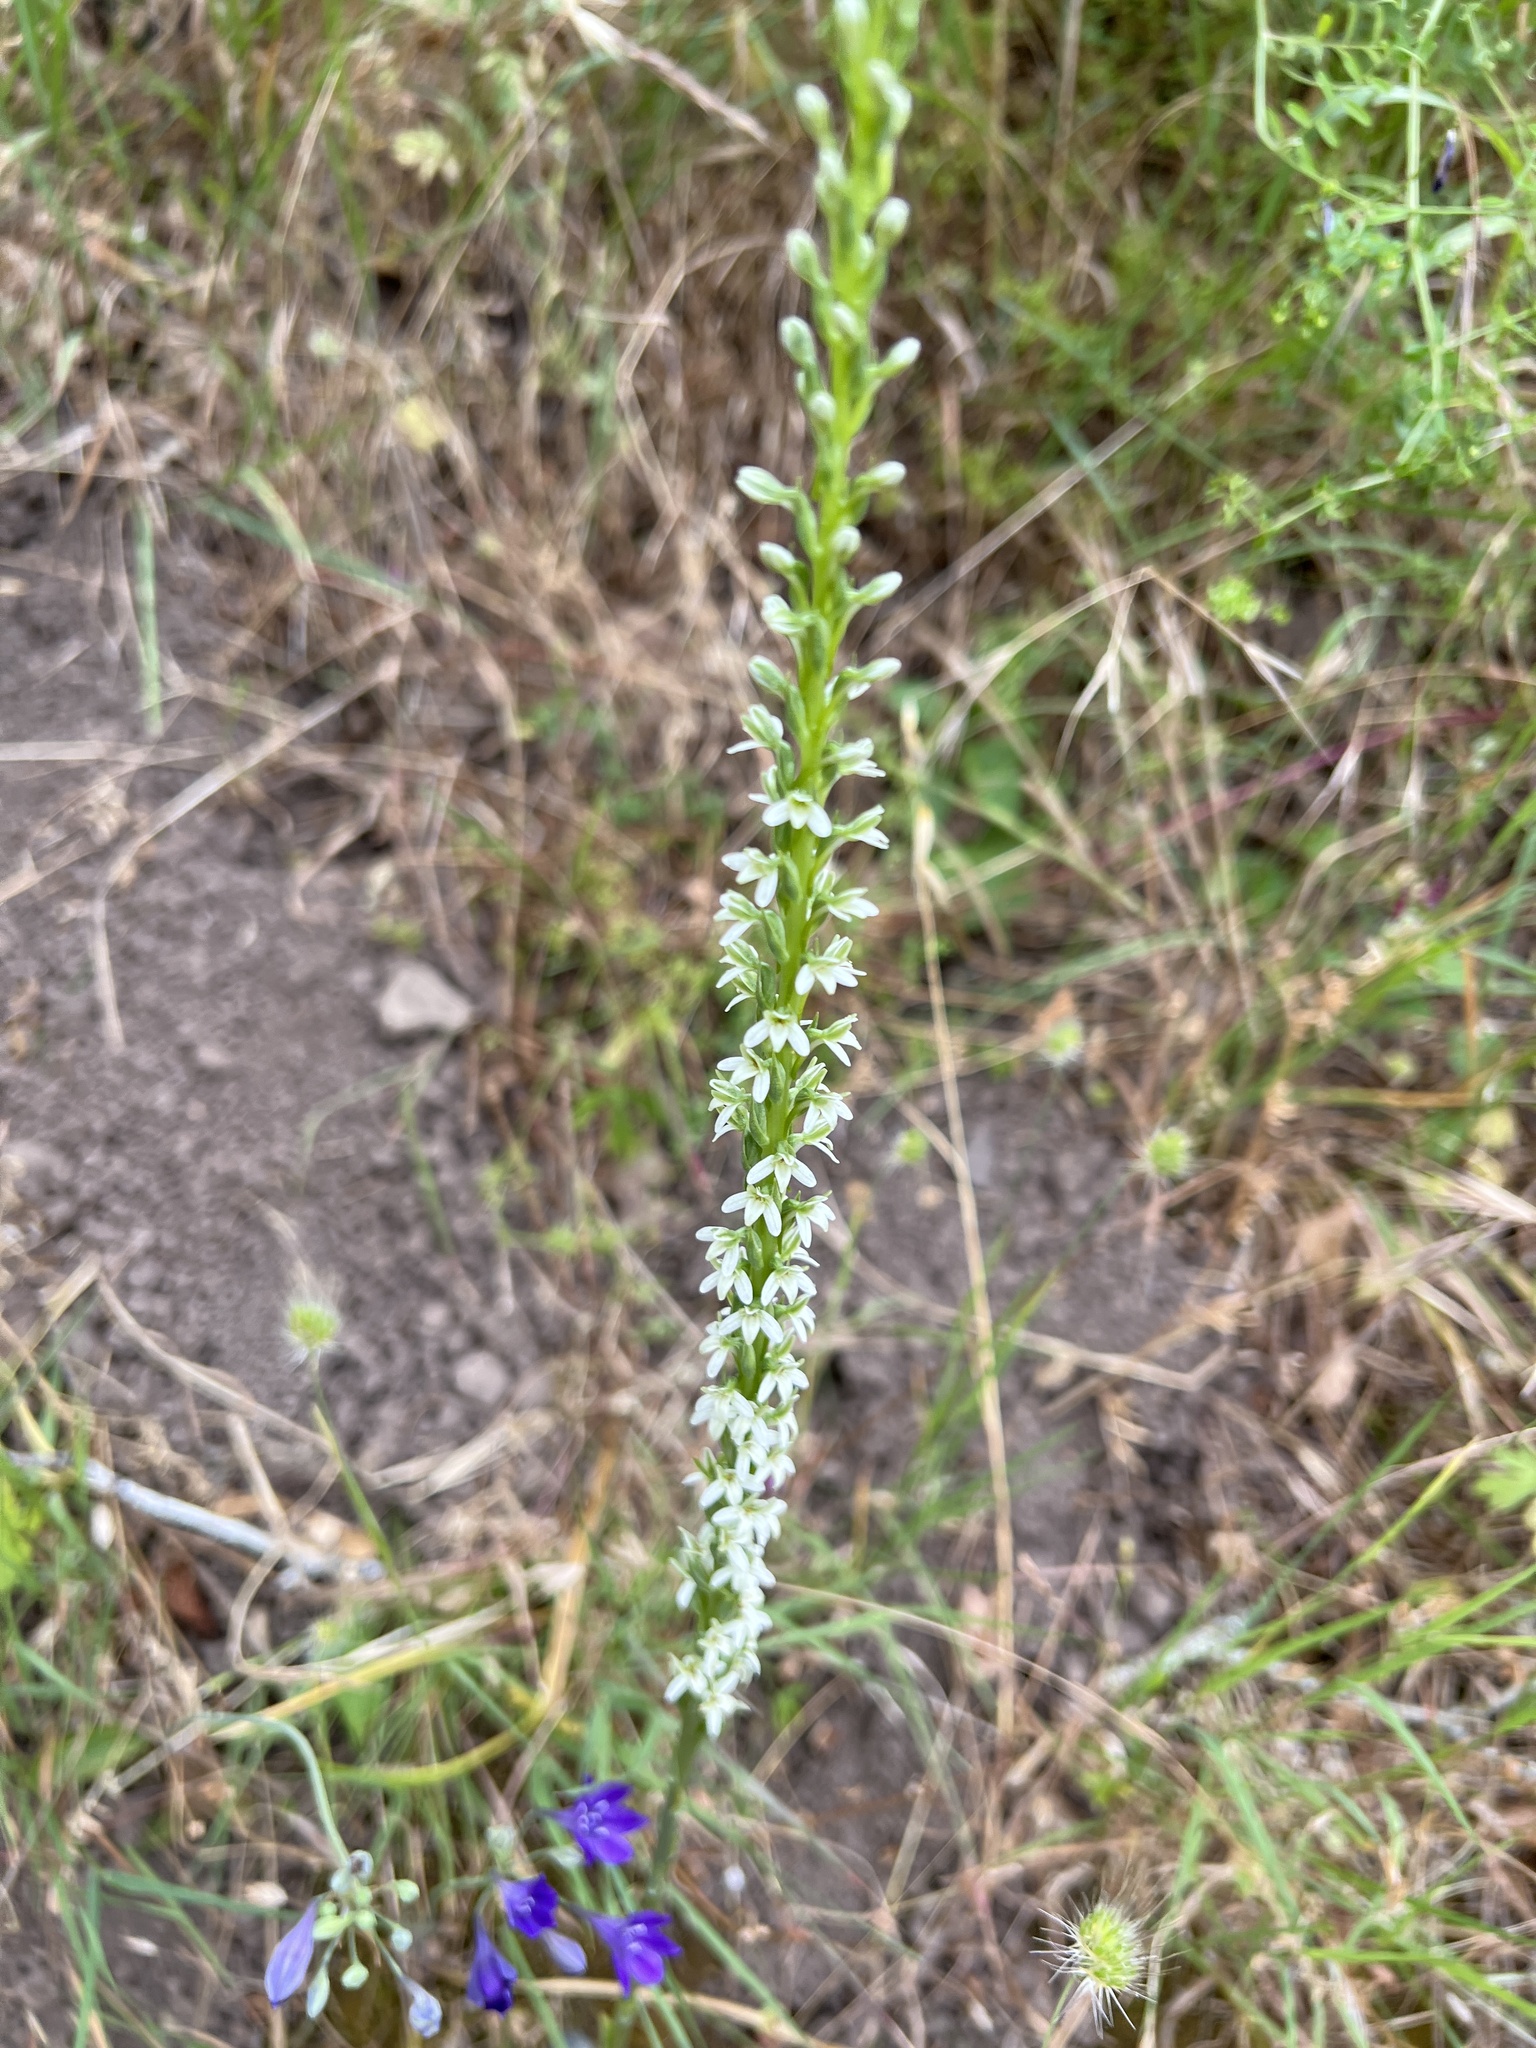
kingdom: Plantae
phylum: Tracheophyta
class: Liliopsida
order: Asparagales
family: Orchidaceae
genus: Platanthera
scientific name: Platanthera elegans
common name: Coast piperia
